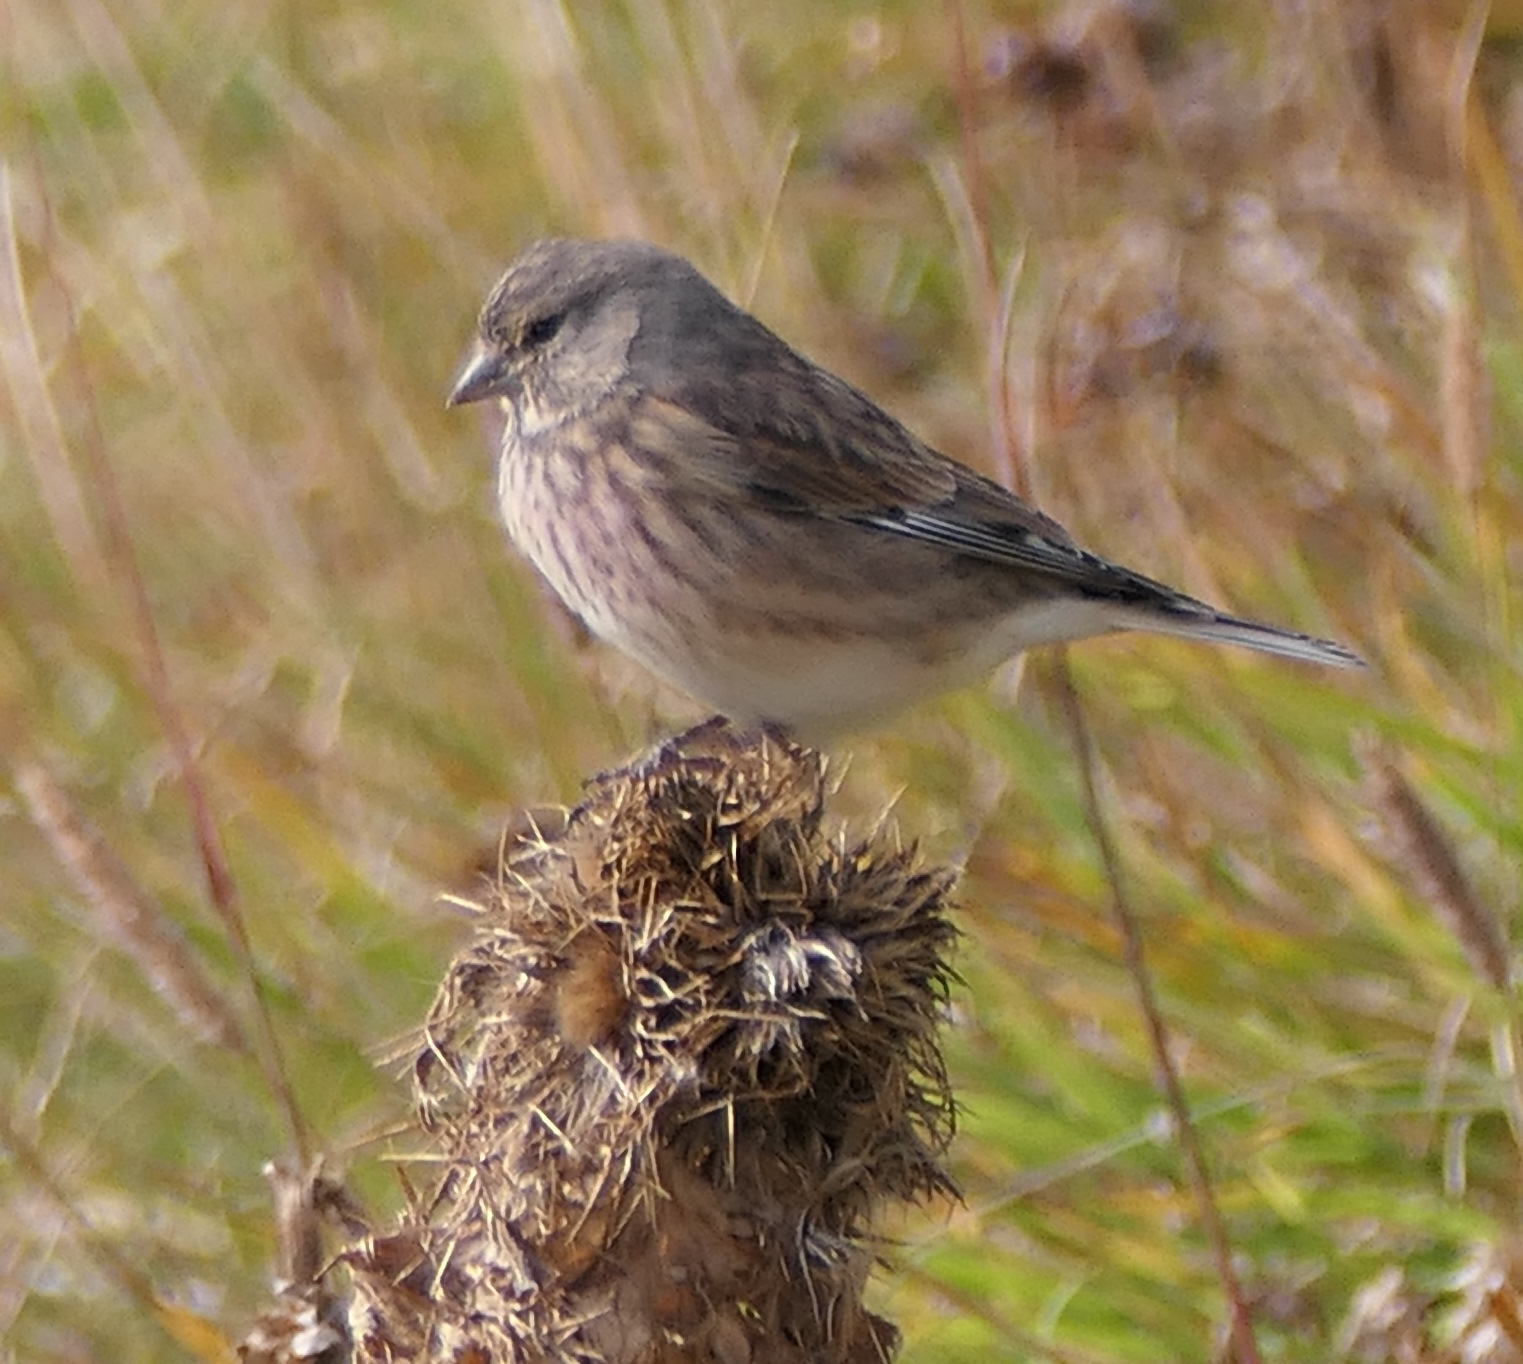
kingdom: Animalia
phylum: Chordata
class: Aves
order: Passeriformes
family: Fringillidae
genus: Linaria
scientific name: Linaria cannabina
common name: Common linnet
